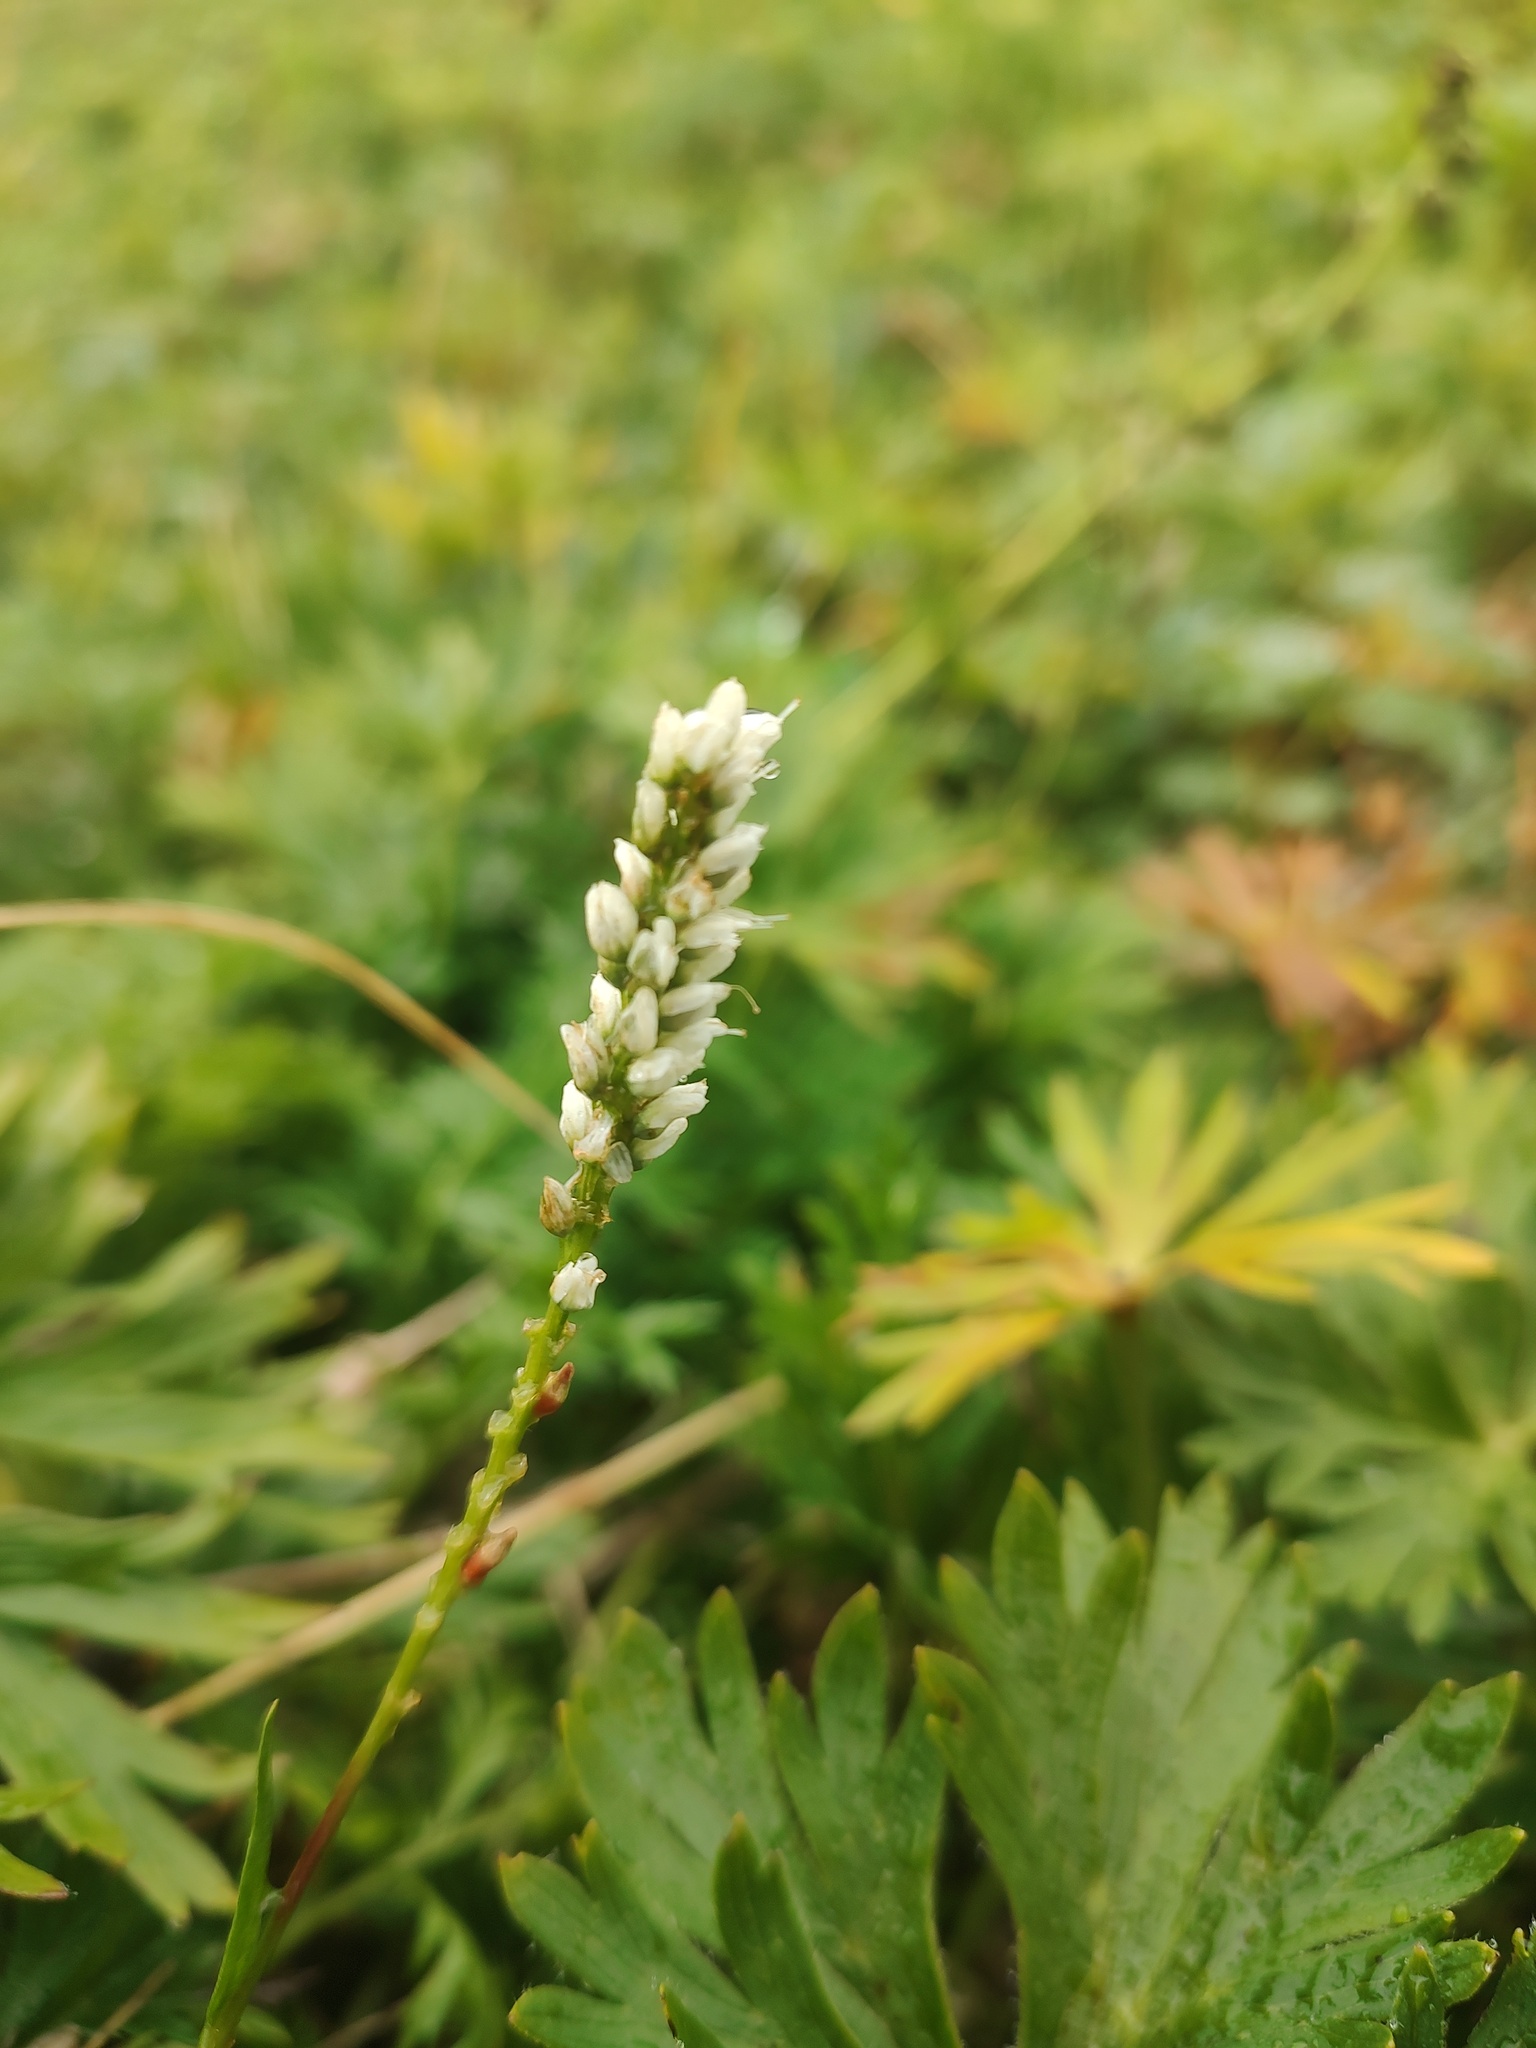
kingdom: Plantae
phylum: Tracheophyta
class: Magnoliopsida
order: Caryophyllales
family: Polygonaceae
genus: Bistorta
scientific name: Bistorta vivipara
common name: Alpine bistort
